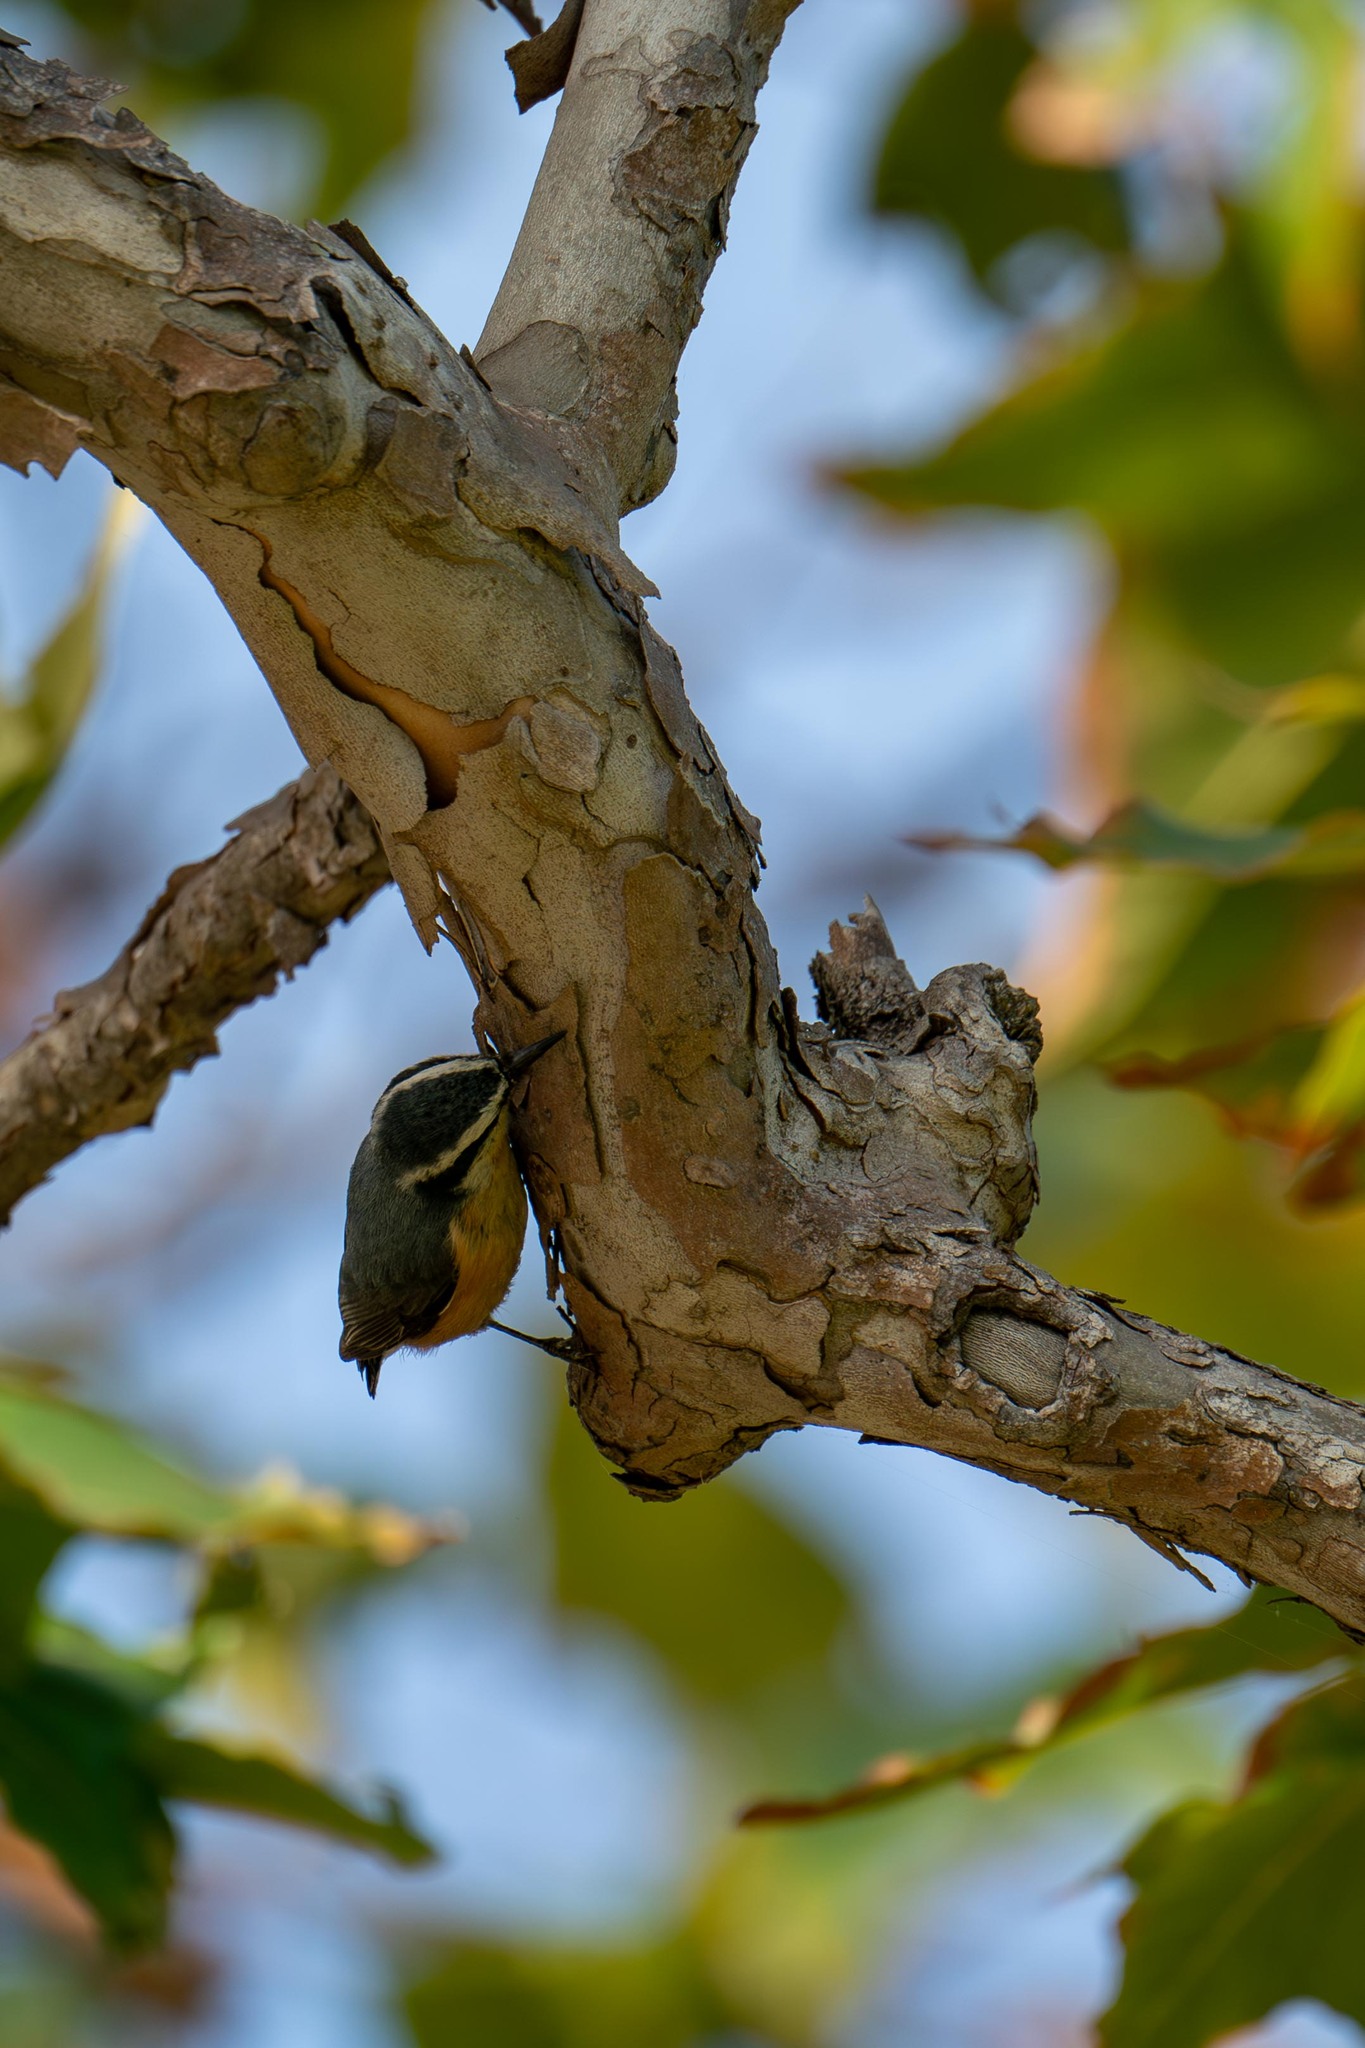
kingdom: Animalia
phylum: Chordata
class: Aves
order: Passeriformes
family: Sittidae
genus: Sitta
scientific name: Sitta canadensis
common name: Red-breasted nuthatch
